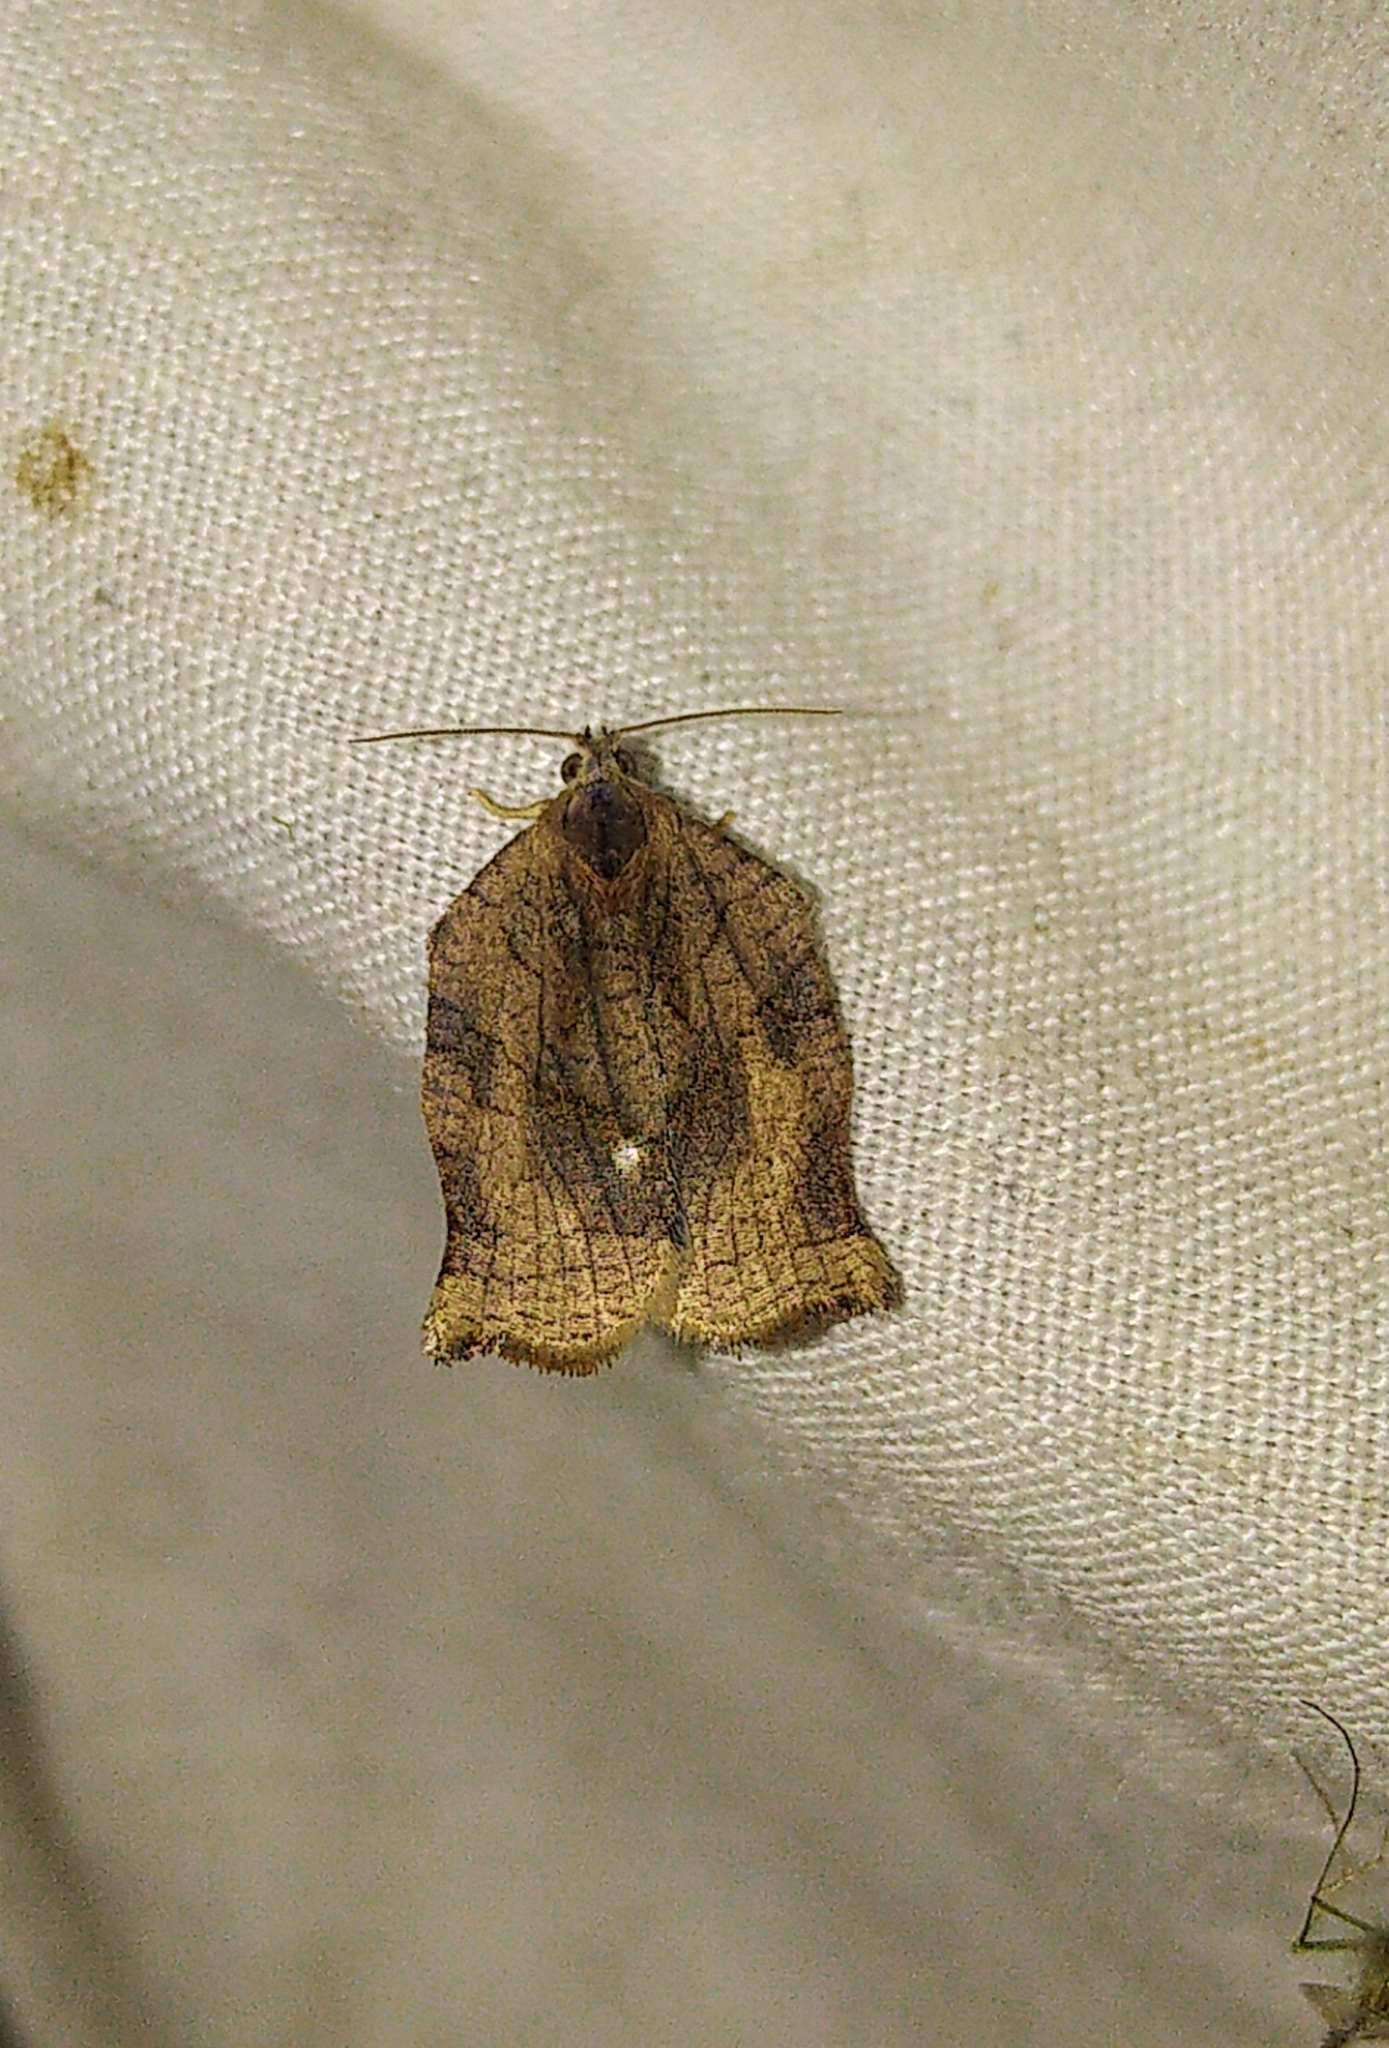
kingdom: Animalia
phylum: Arthropoda
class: Insecta
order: Lepidoptera
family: Tortricidae
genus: Archips
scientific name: Archips purpurana
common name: Omnivorous leafroller
